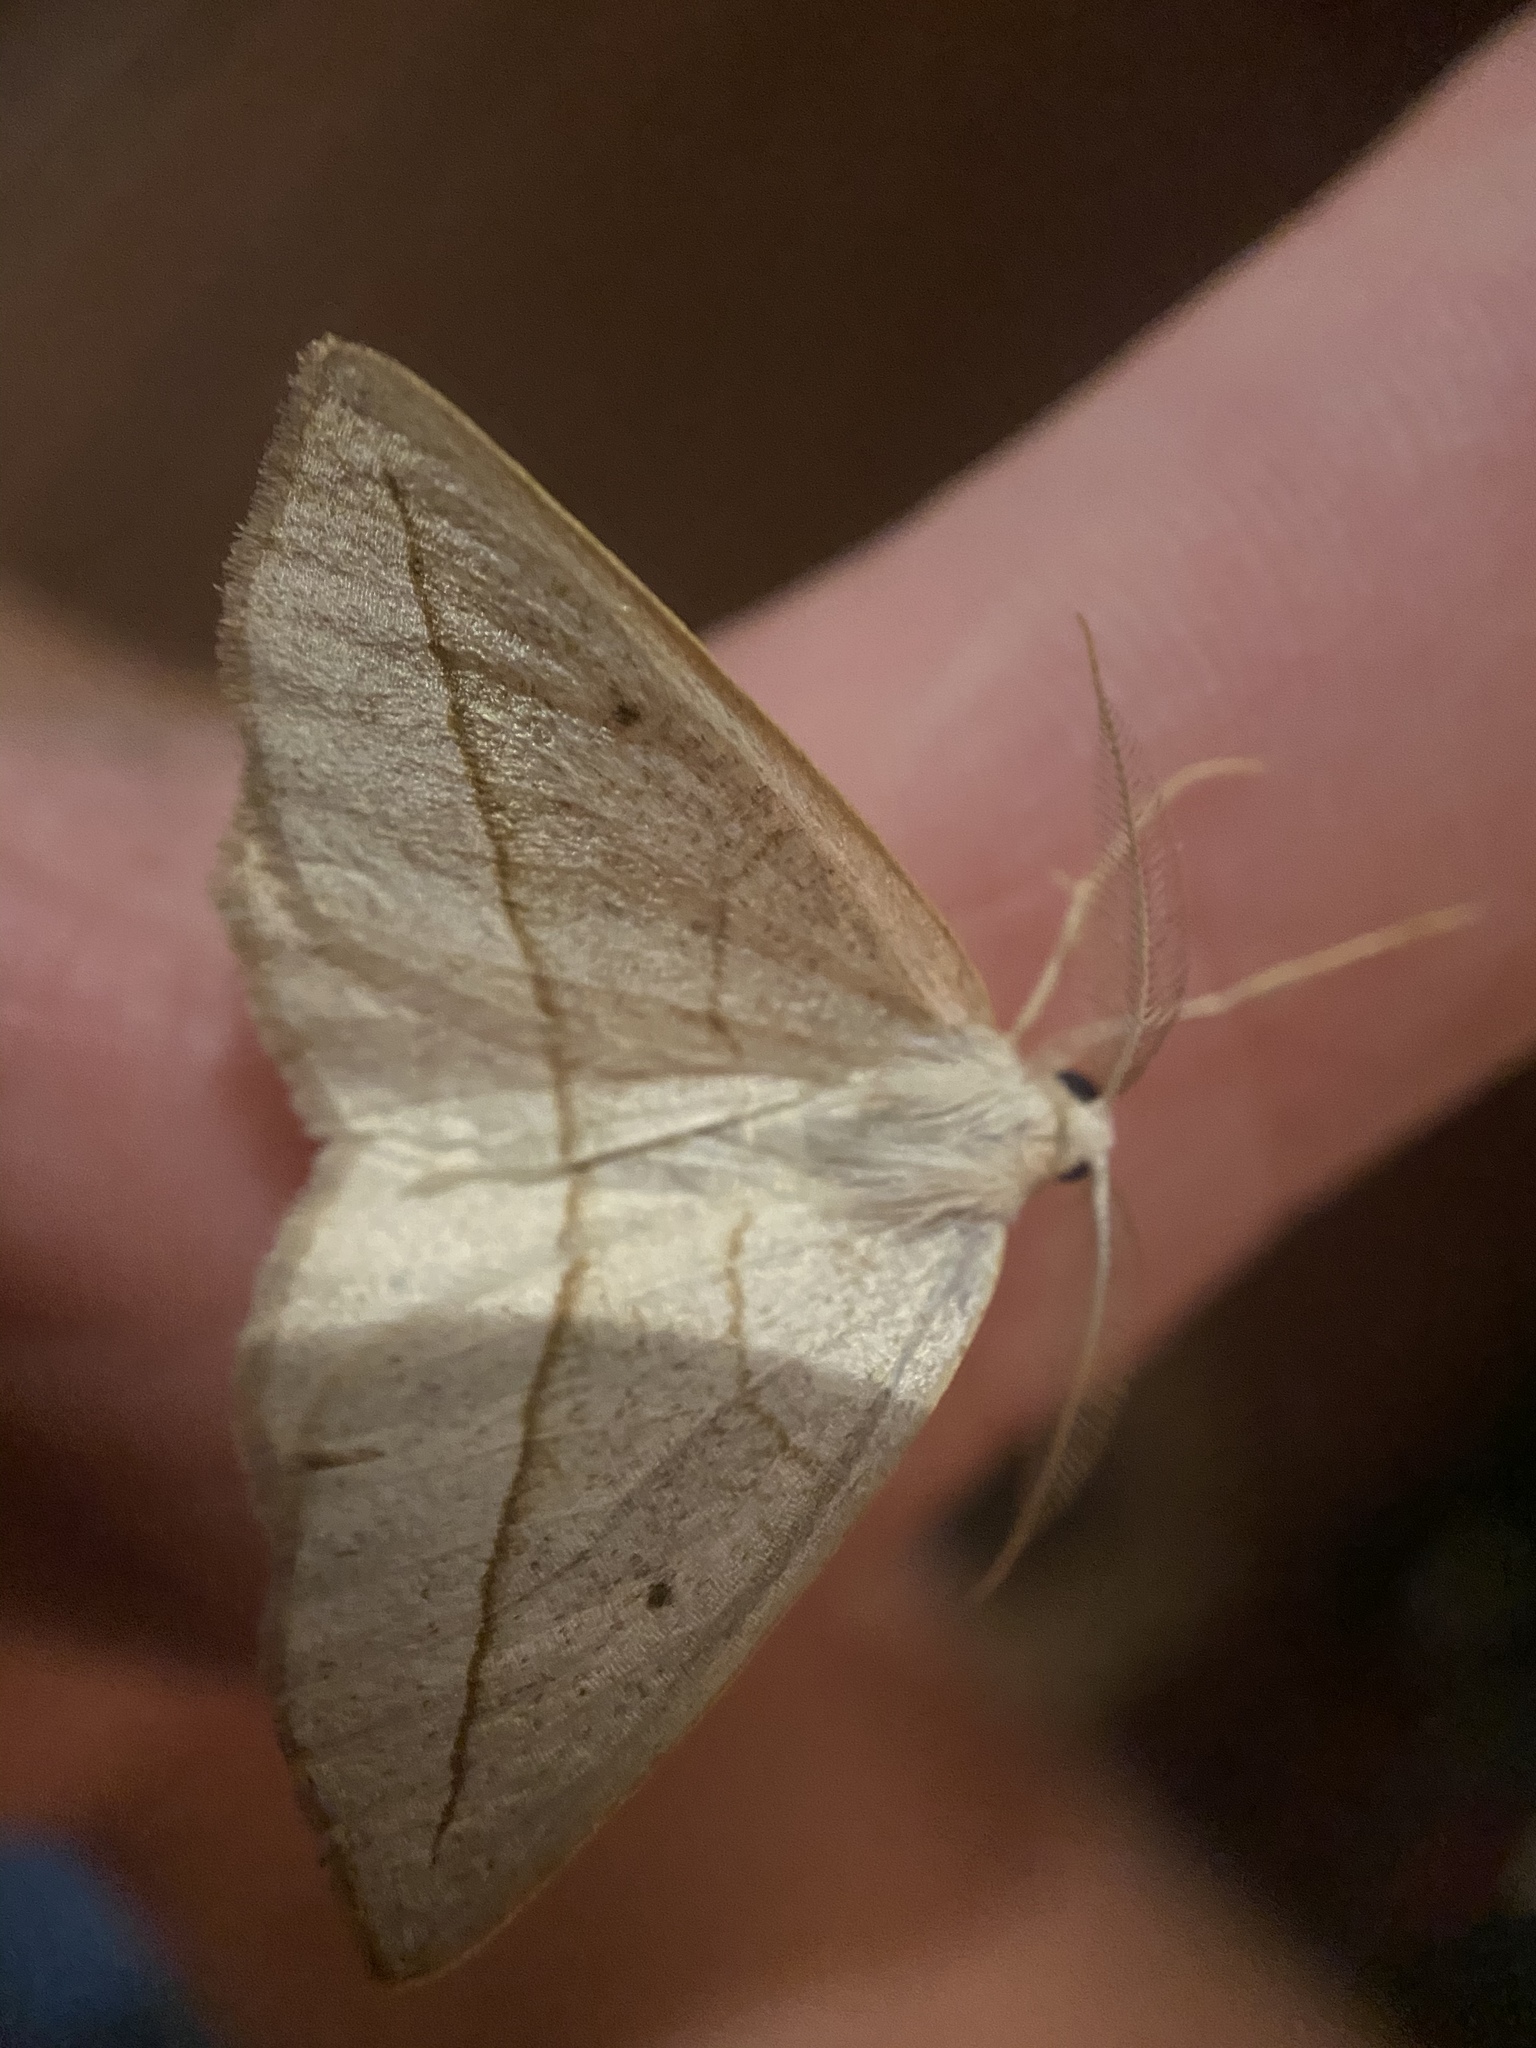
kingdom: Animalia
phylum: Arthropoda
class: Insecta
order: Lepidoptera
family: Geometridae
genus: Eusarca
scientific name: Eusarca confusaria
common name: Confused eusarca
